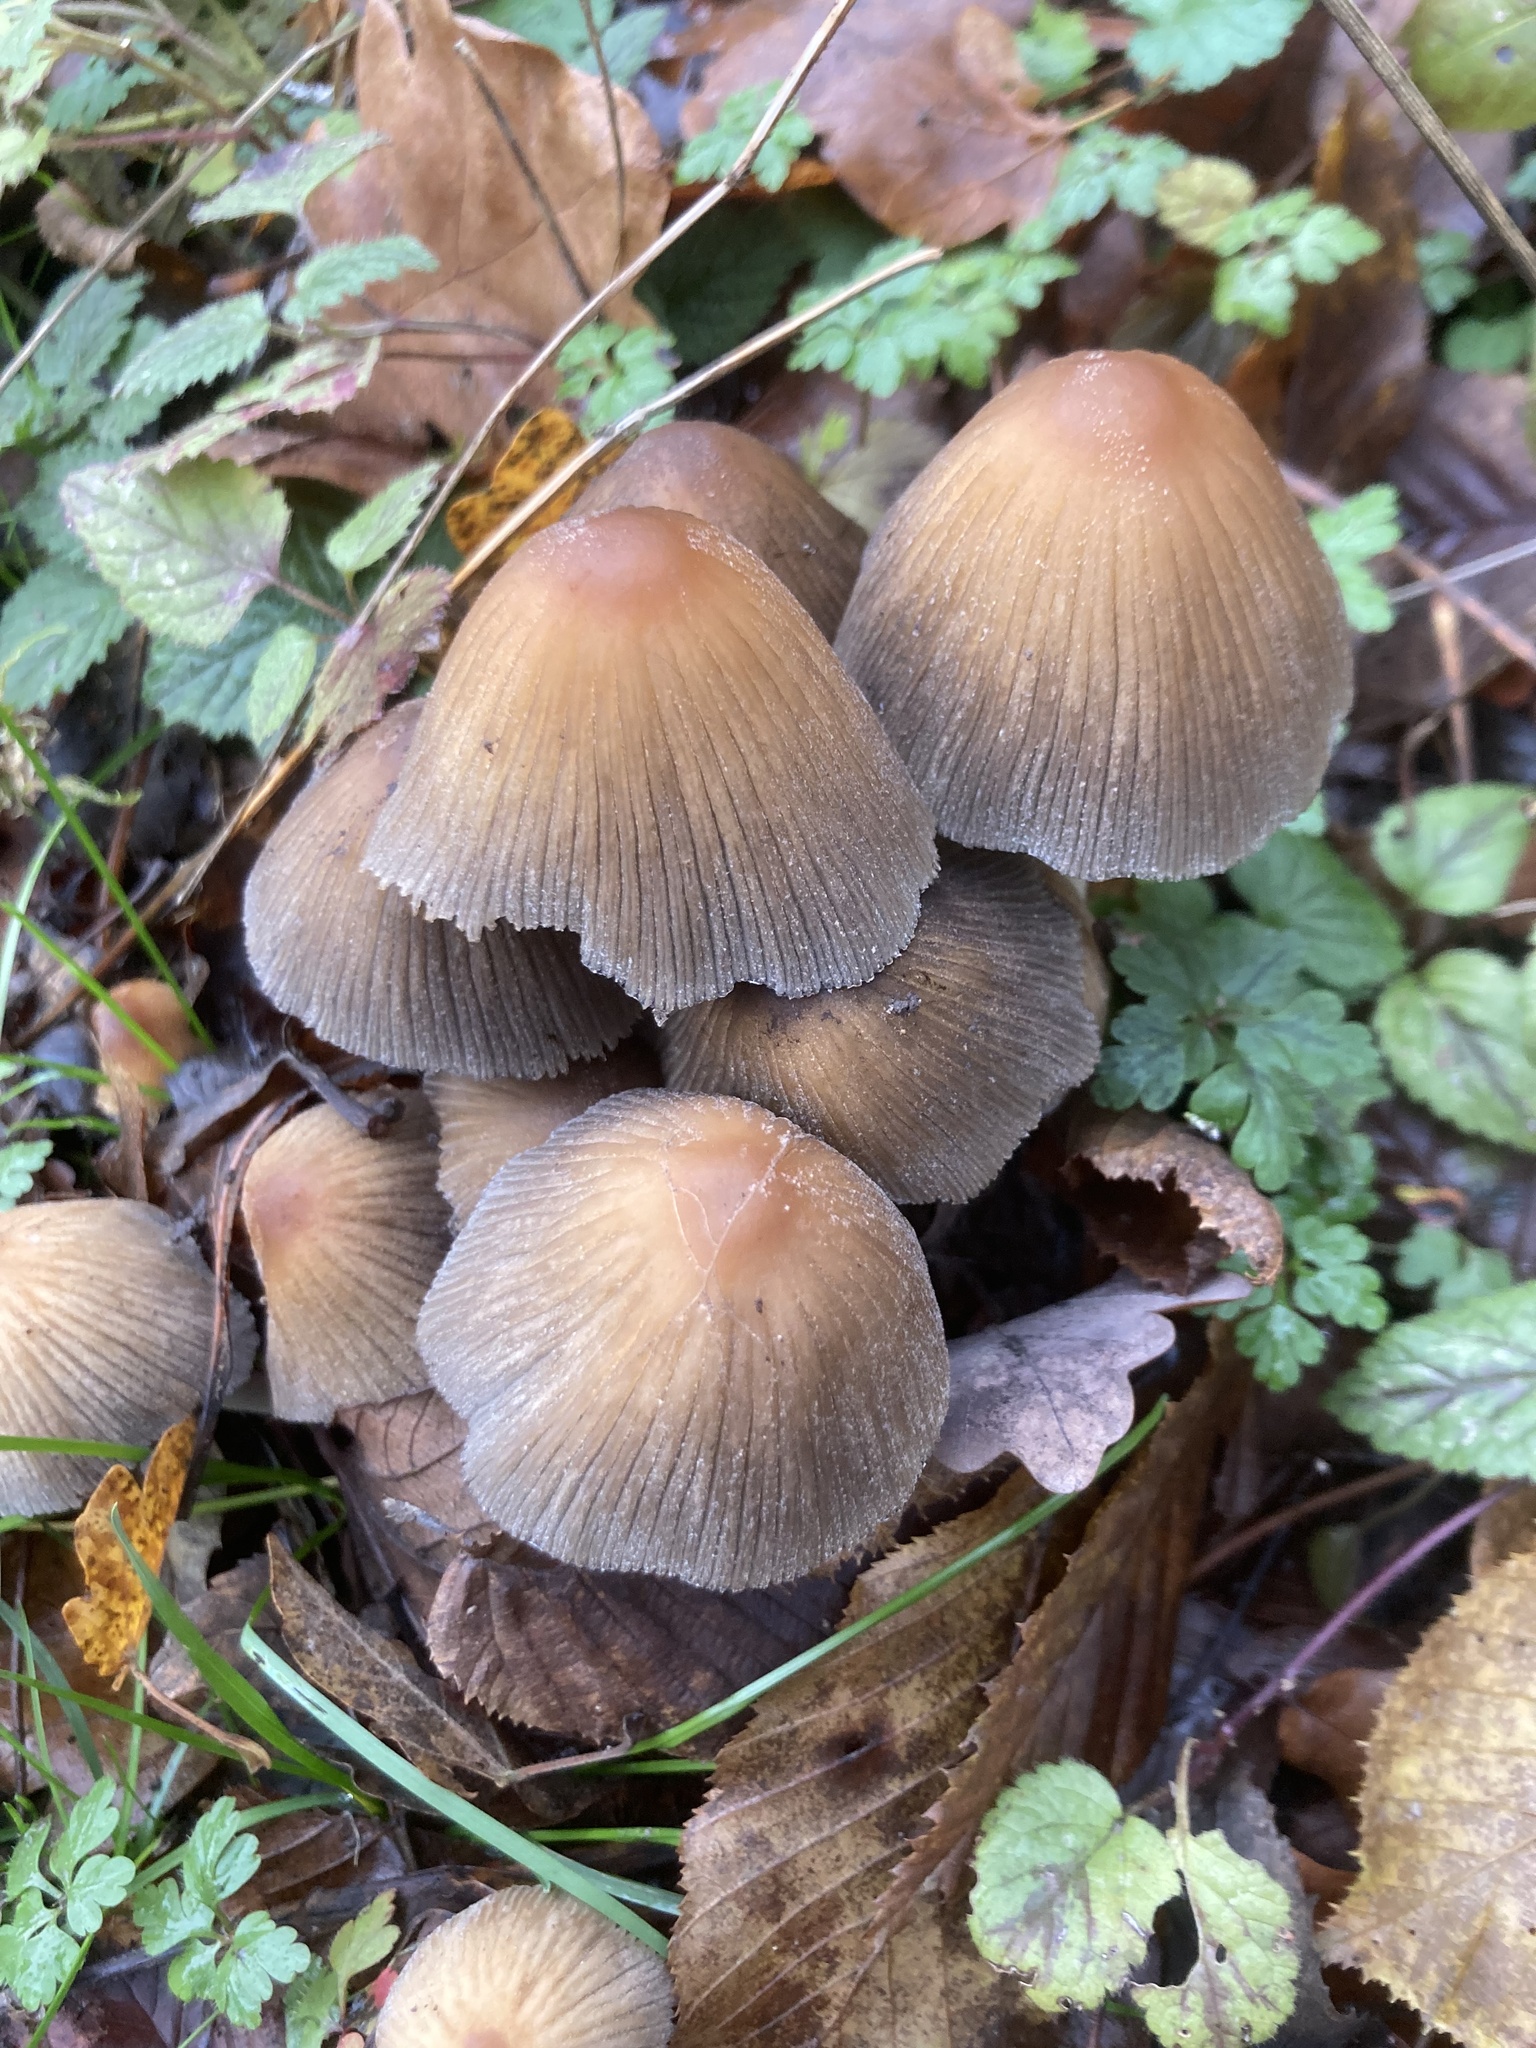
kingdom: Fungi
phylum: Basidiomycota
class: Agaricomycetes
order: Agaricales
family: Psathyrellaceae
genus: Coprinellus
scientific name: Coprinellus micaceus
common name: Glistening ink-cap
